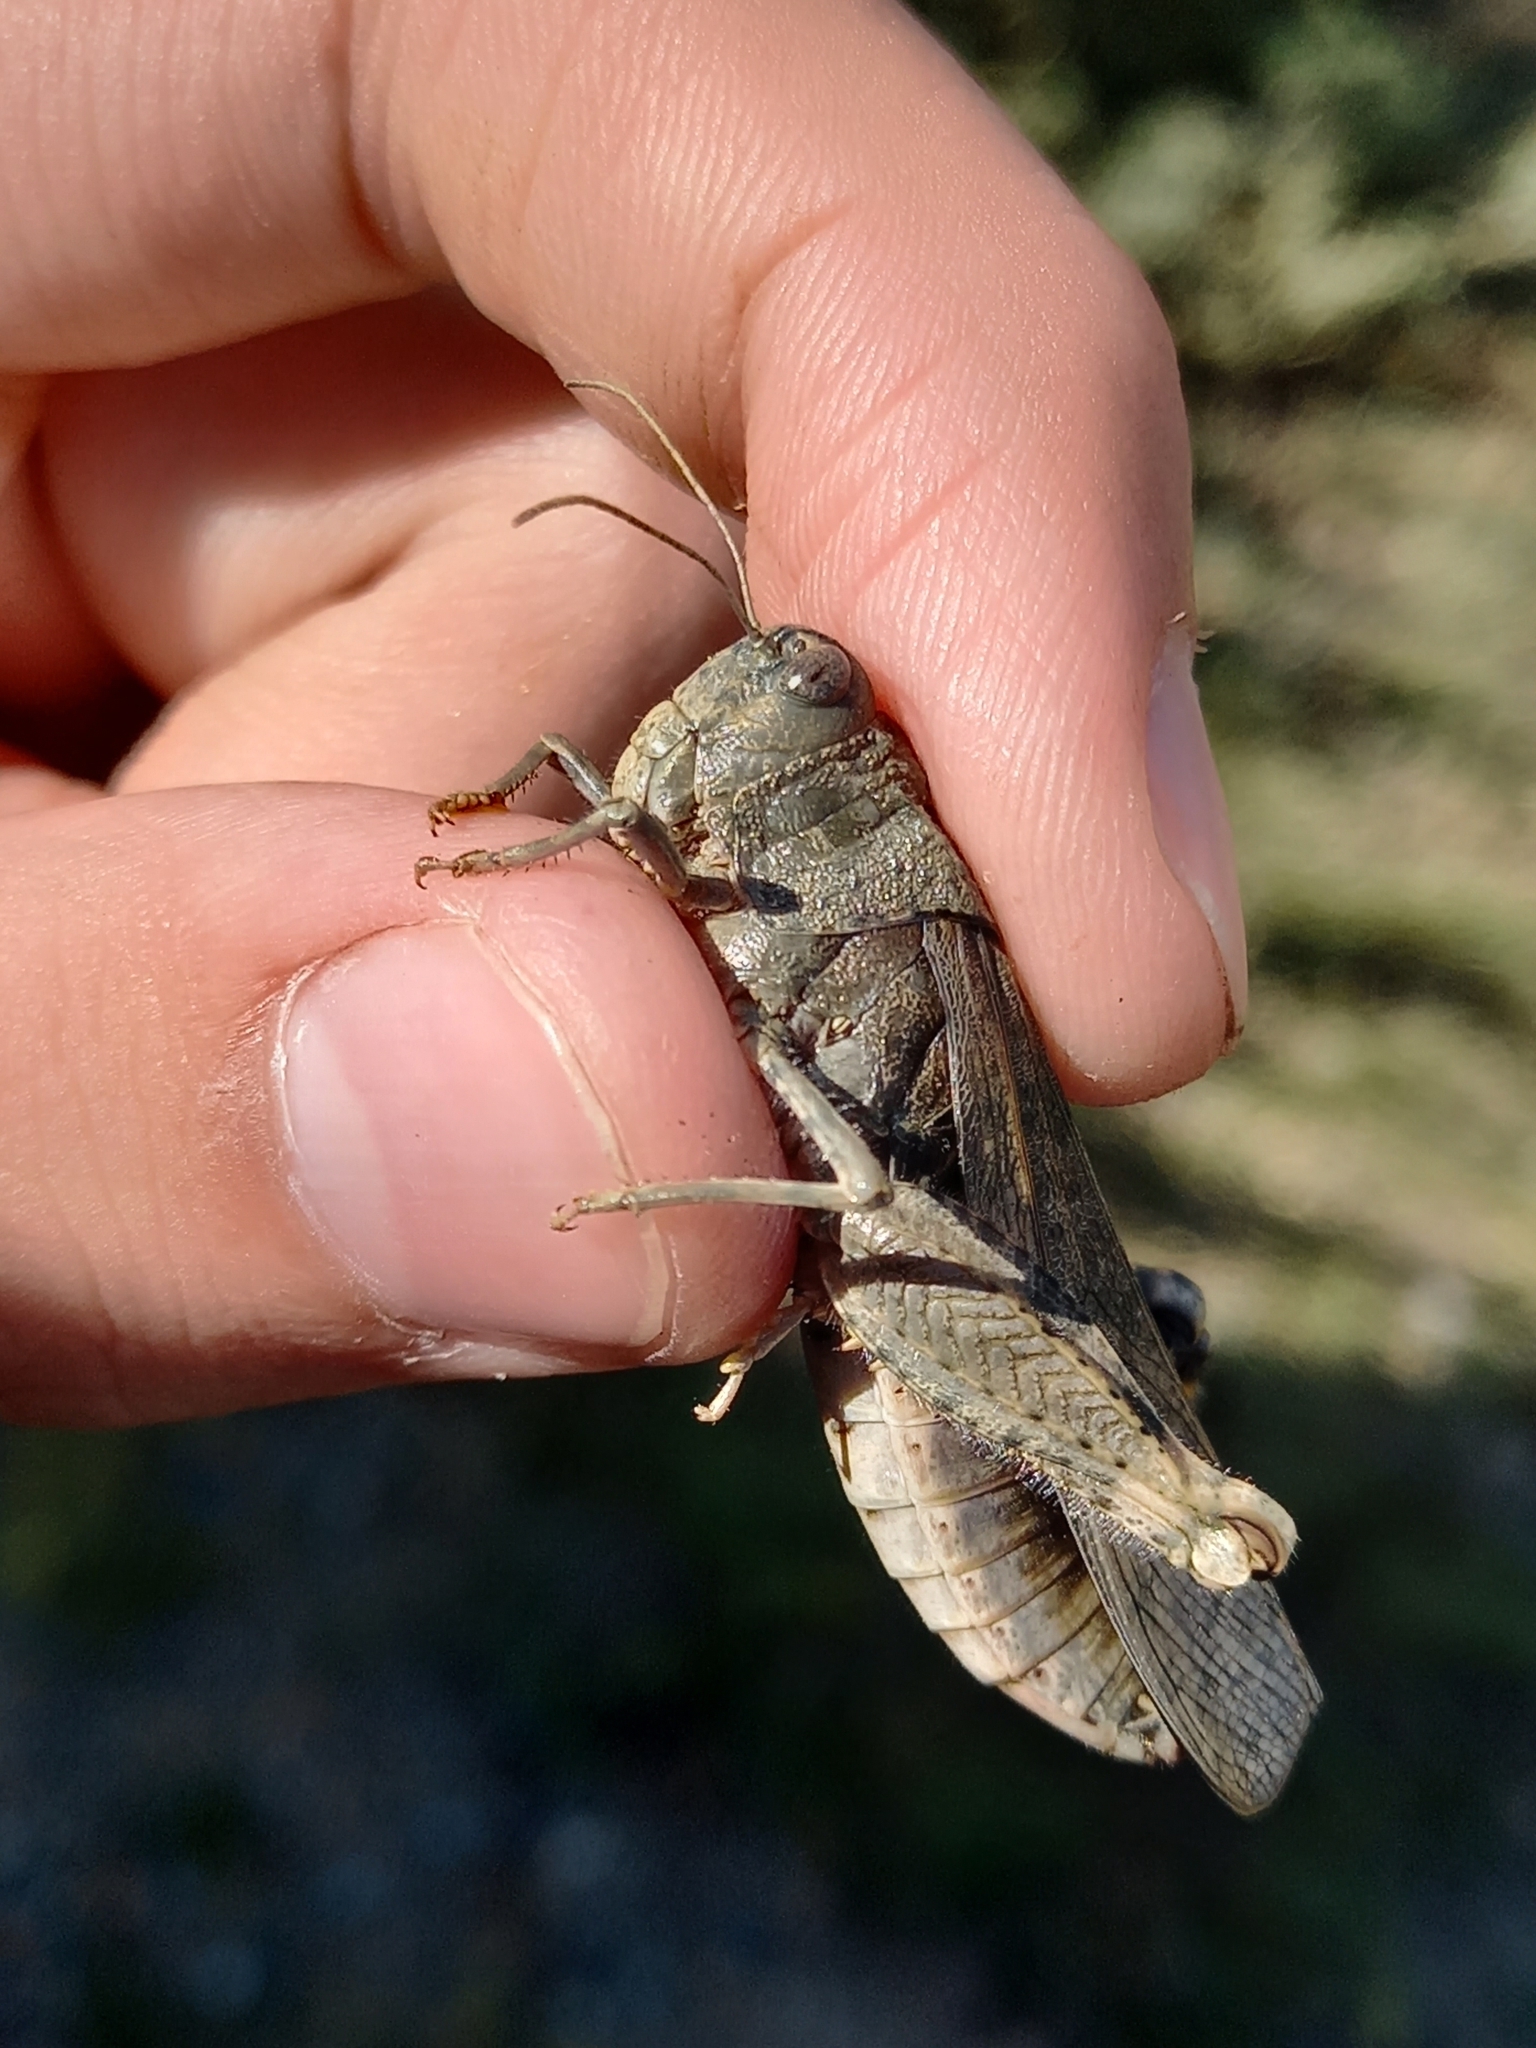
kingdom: Animalia
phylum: Arthropoda
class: Insecta
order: Orthoptera
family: Acrididae
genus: Bryodemella
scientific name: Bryodemella holdereri
